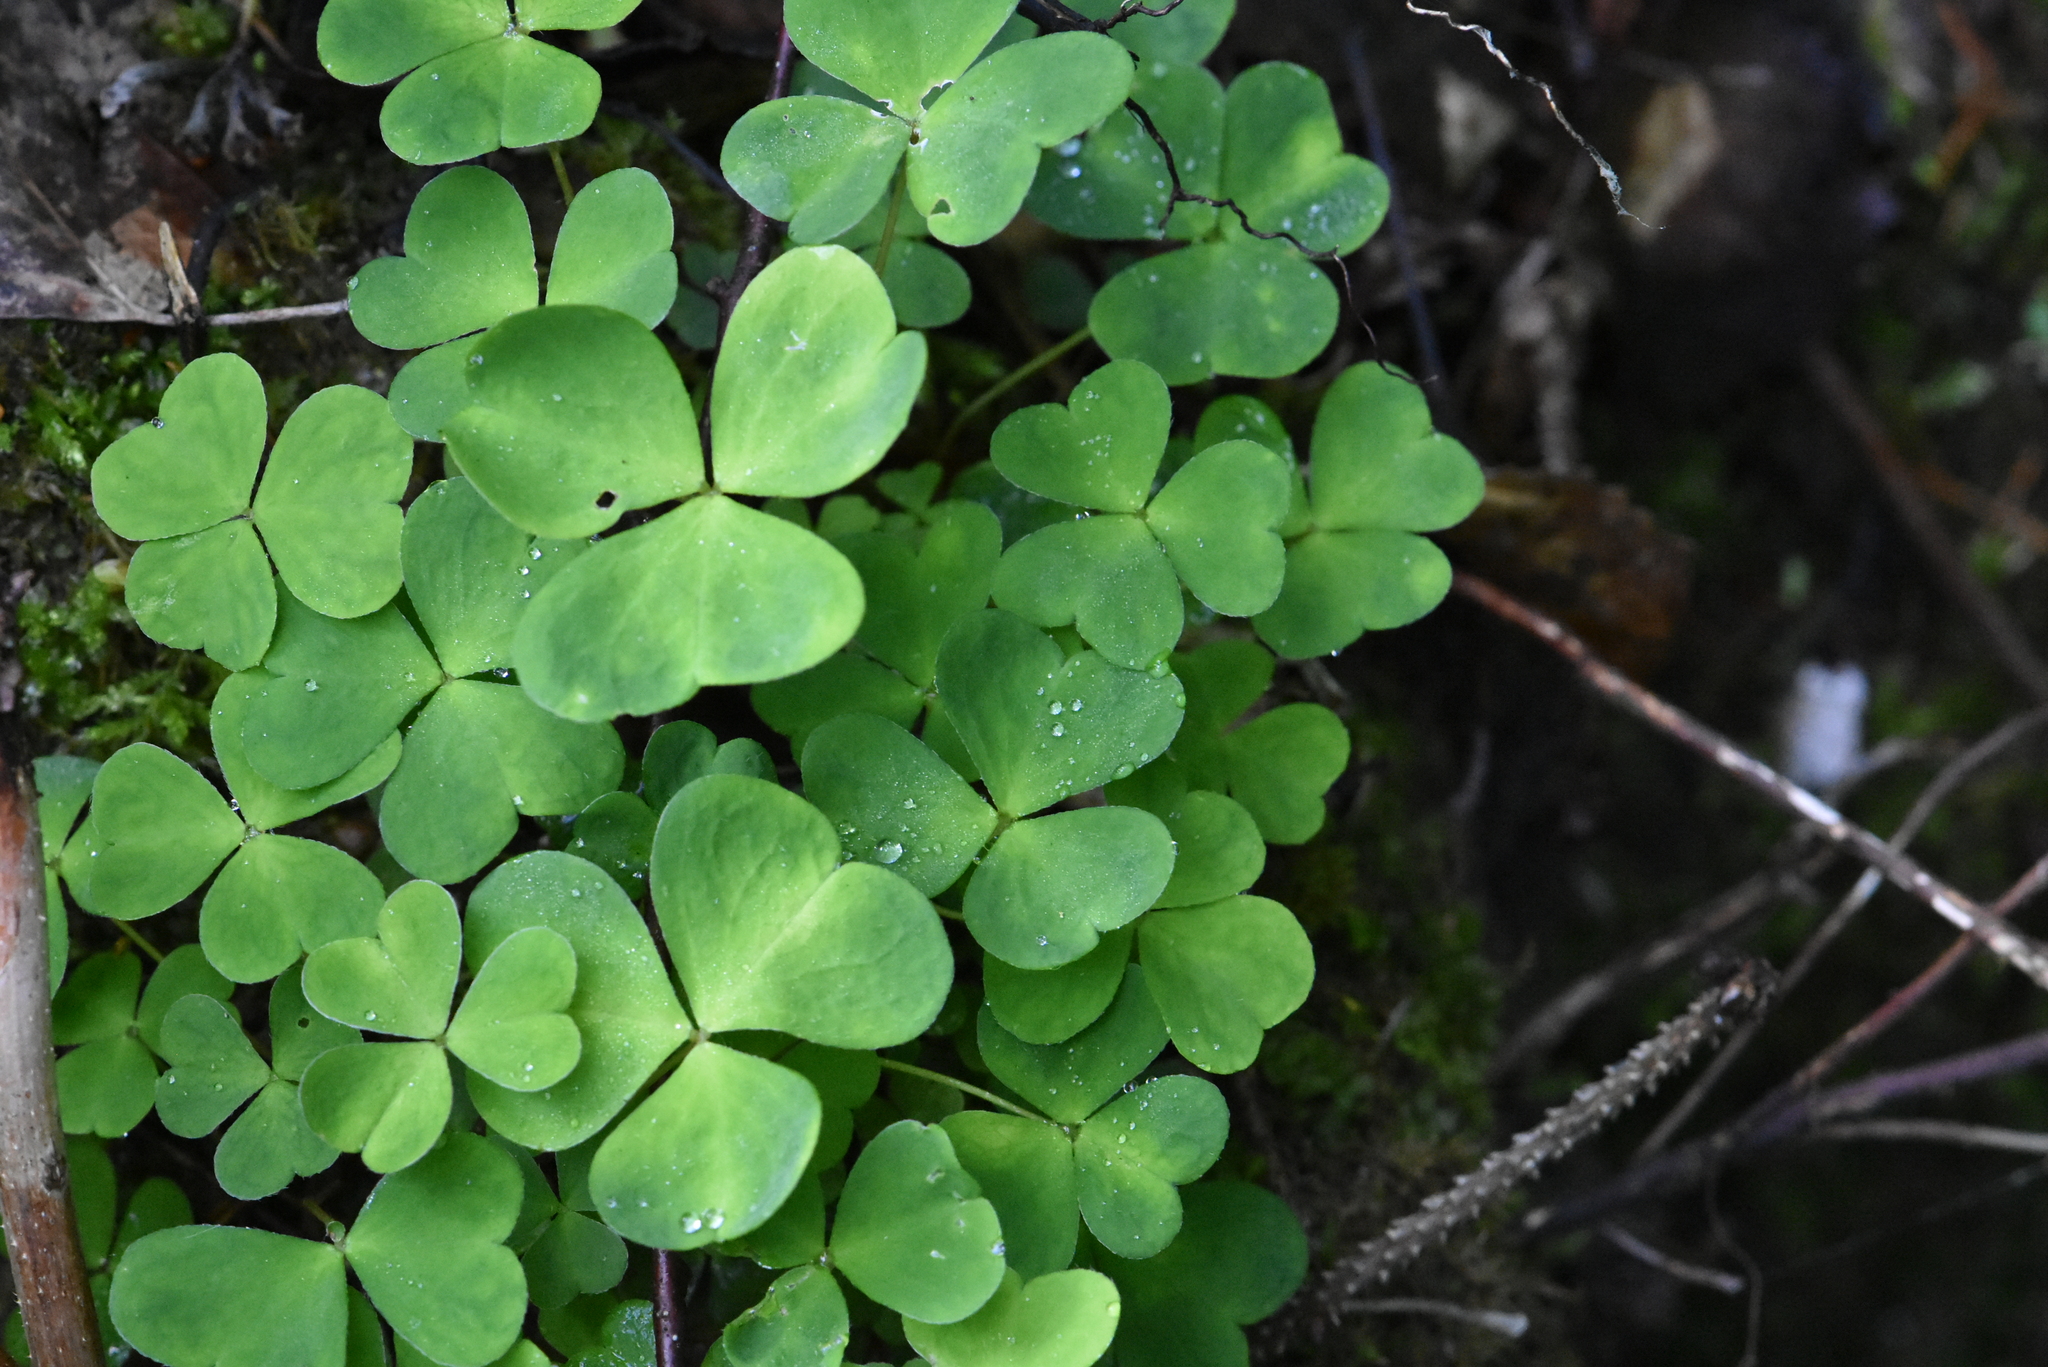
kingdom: Plantae
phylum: Tracheophyta
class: Magnoliopsida
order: Oxalidales
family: Oxalidaceae
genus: Oxalis
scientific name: Oxalis acetosella
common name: Wood-sorrel
